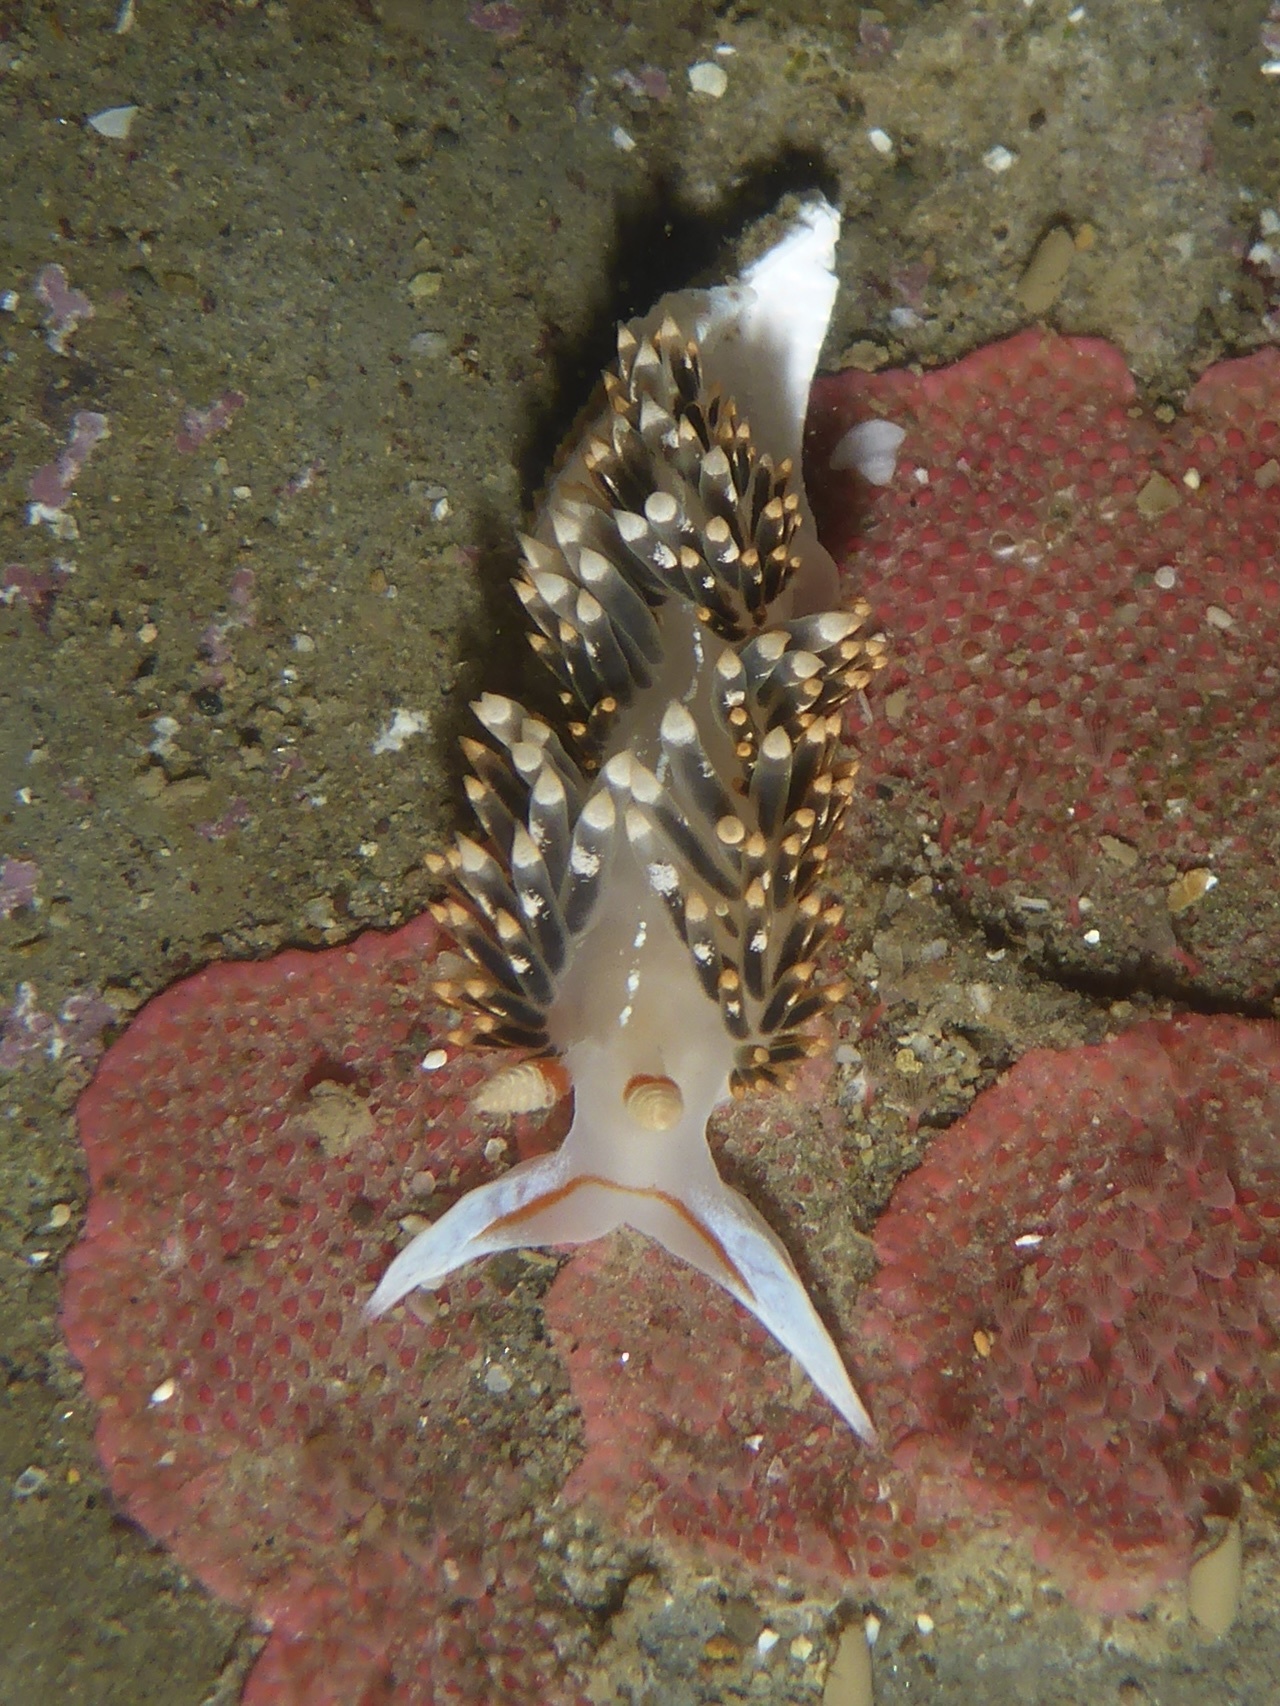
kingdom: Animalia
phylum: Mollusca
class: Gastropoda
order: Nudibranchia
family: Facelinidae
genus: Phidiana
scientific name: Phidiana hiltoni
